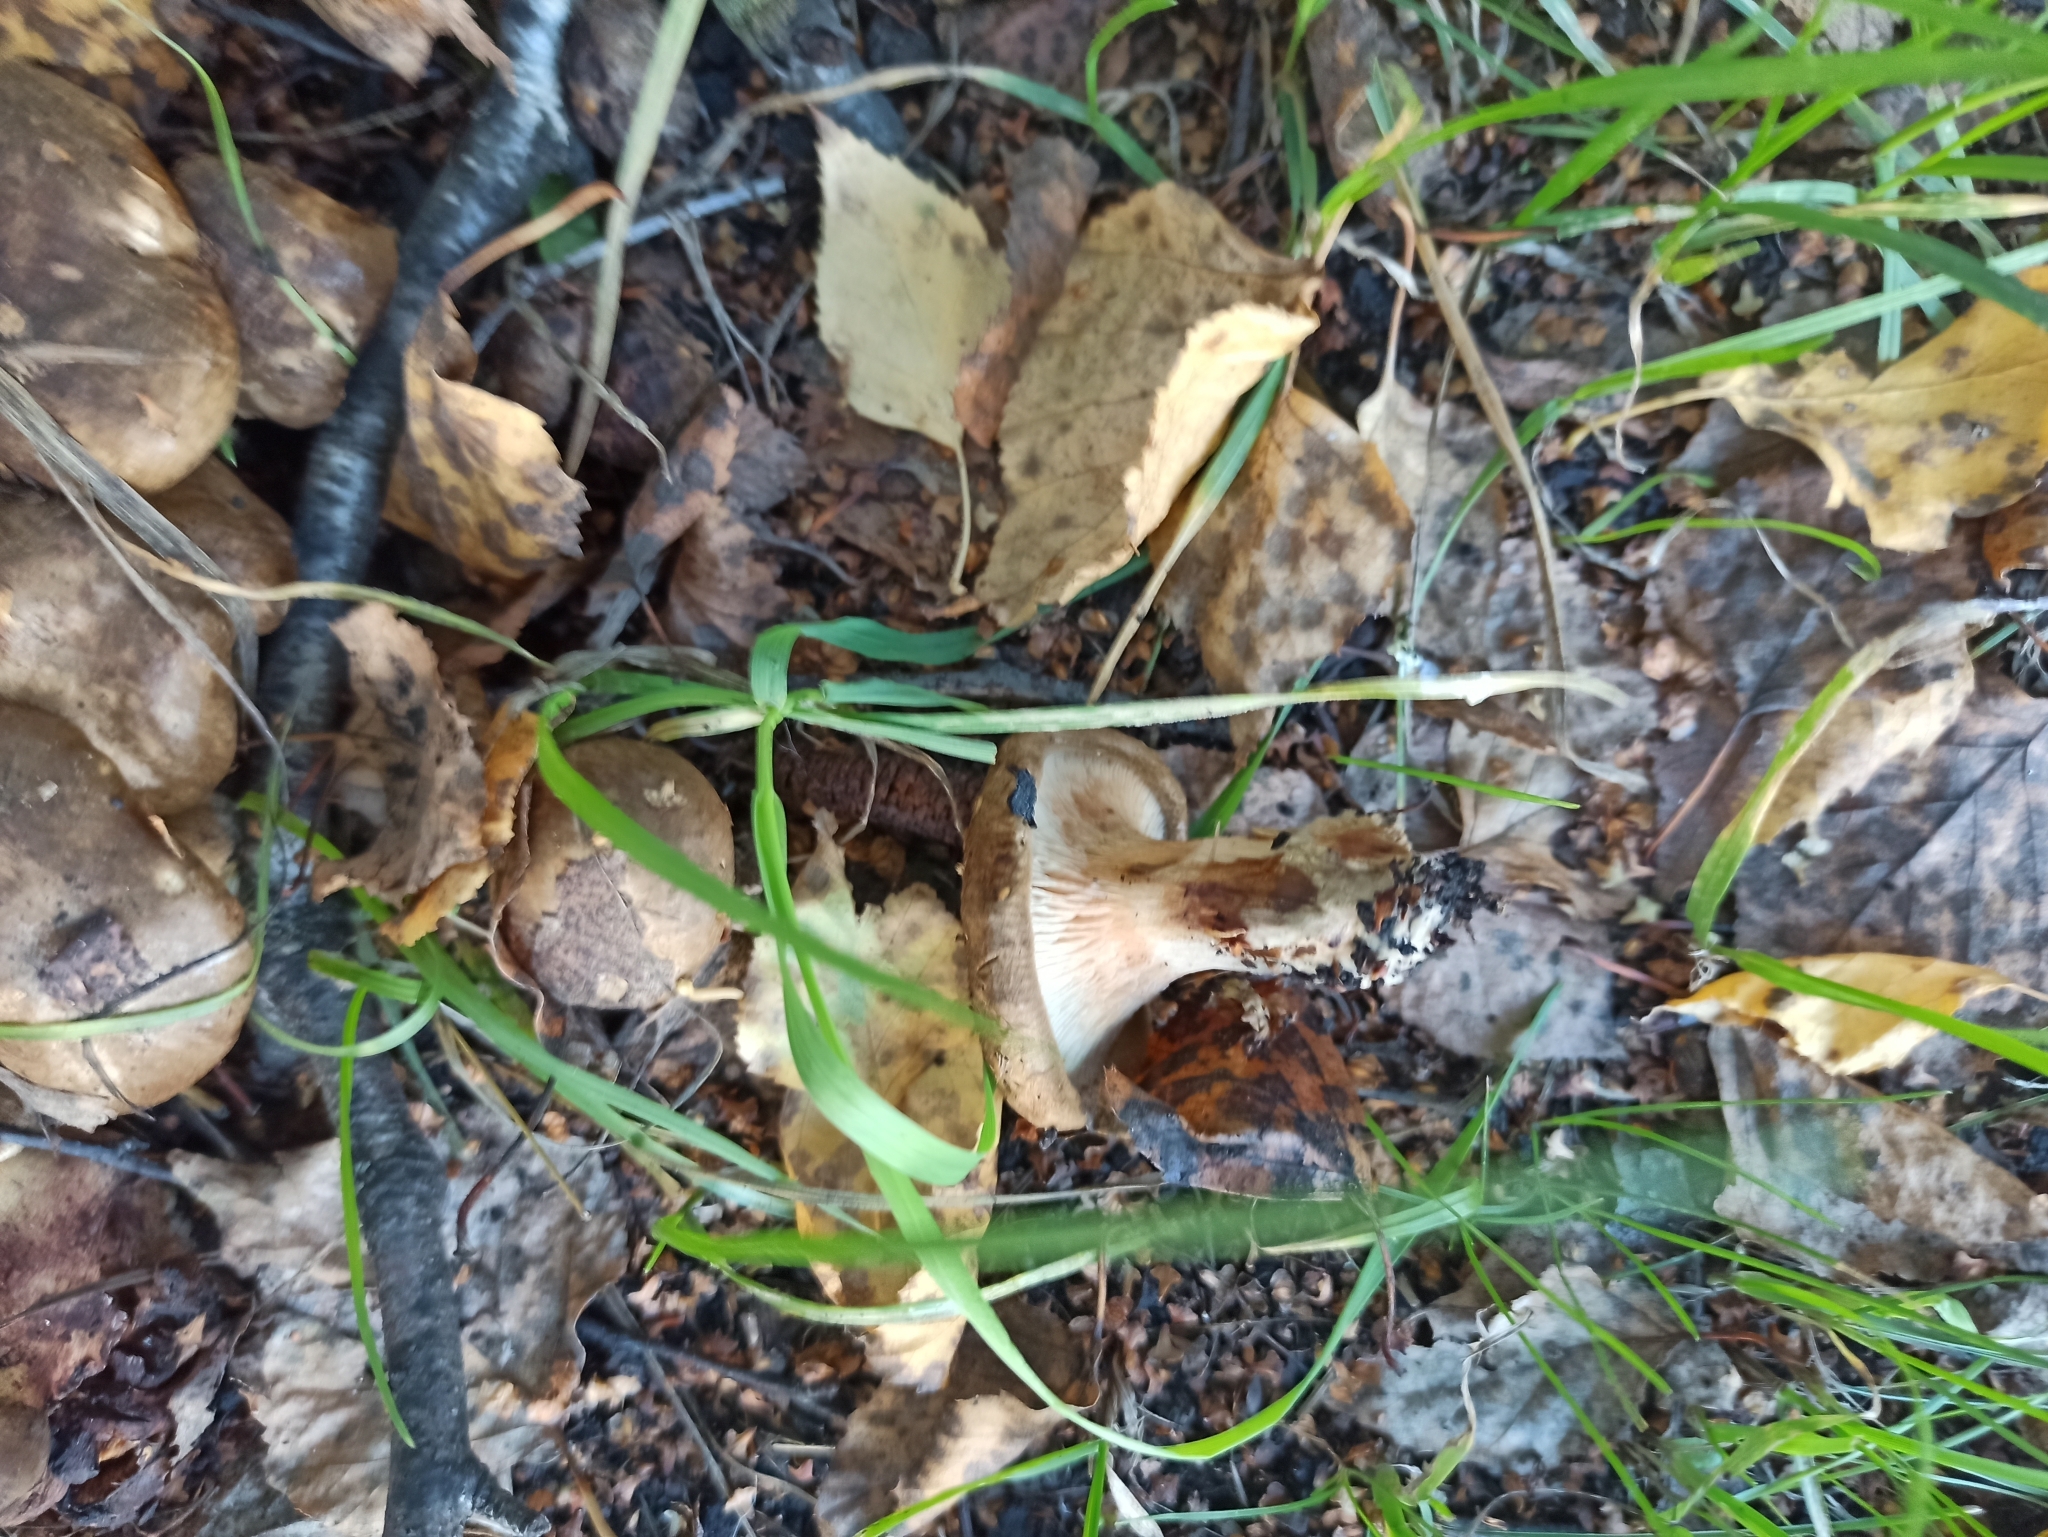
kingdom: Fungi
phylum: Basidiomycota
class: Agaricomycetes
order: Boletales
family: Paxillaceae
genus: Paxillus
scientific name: Paxillus involutus
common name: Brown roll rim
